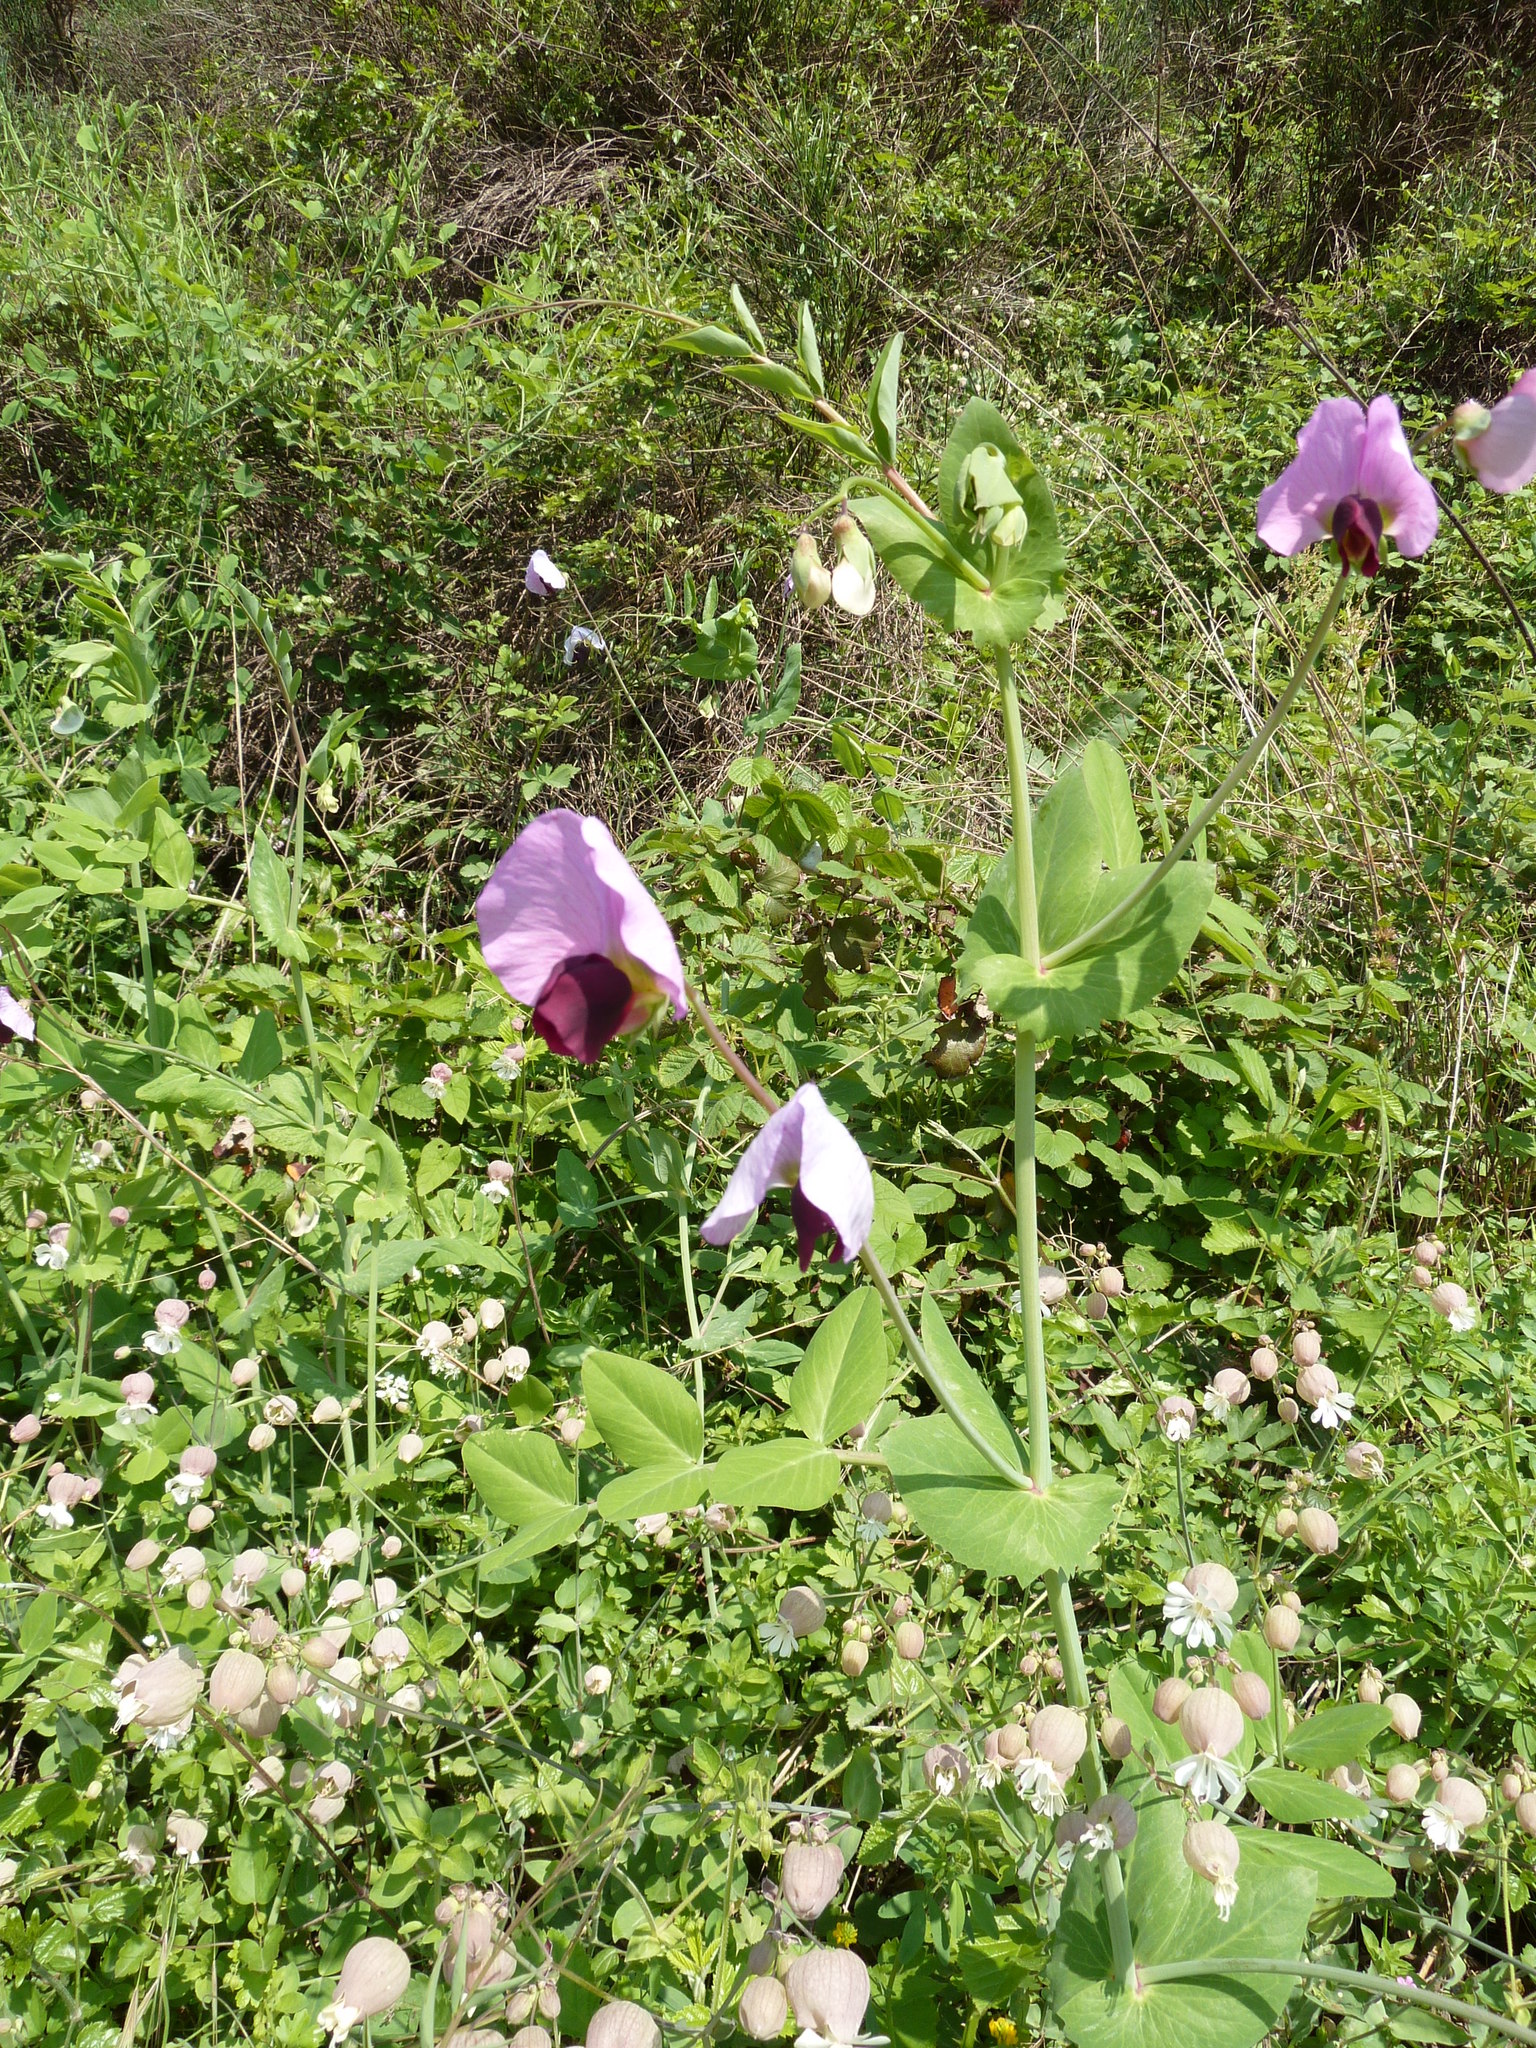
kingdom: Plantae
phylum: Tracheophyta
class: Magnoliopsida
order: Fabales
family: Fabaceae
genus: Lathyrus
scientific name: Lathyrus oleraceus
